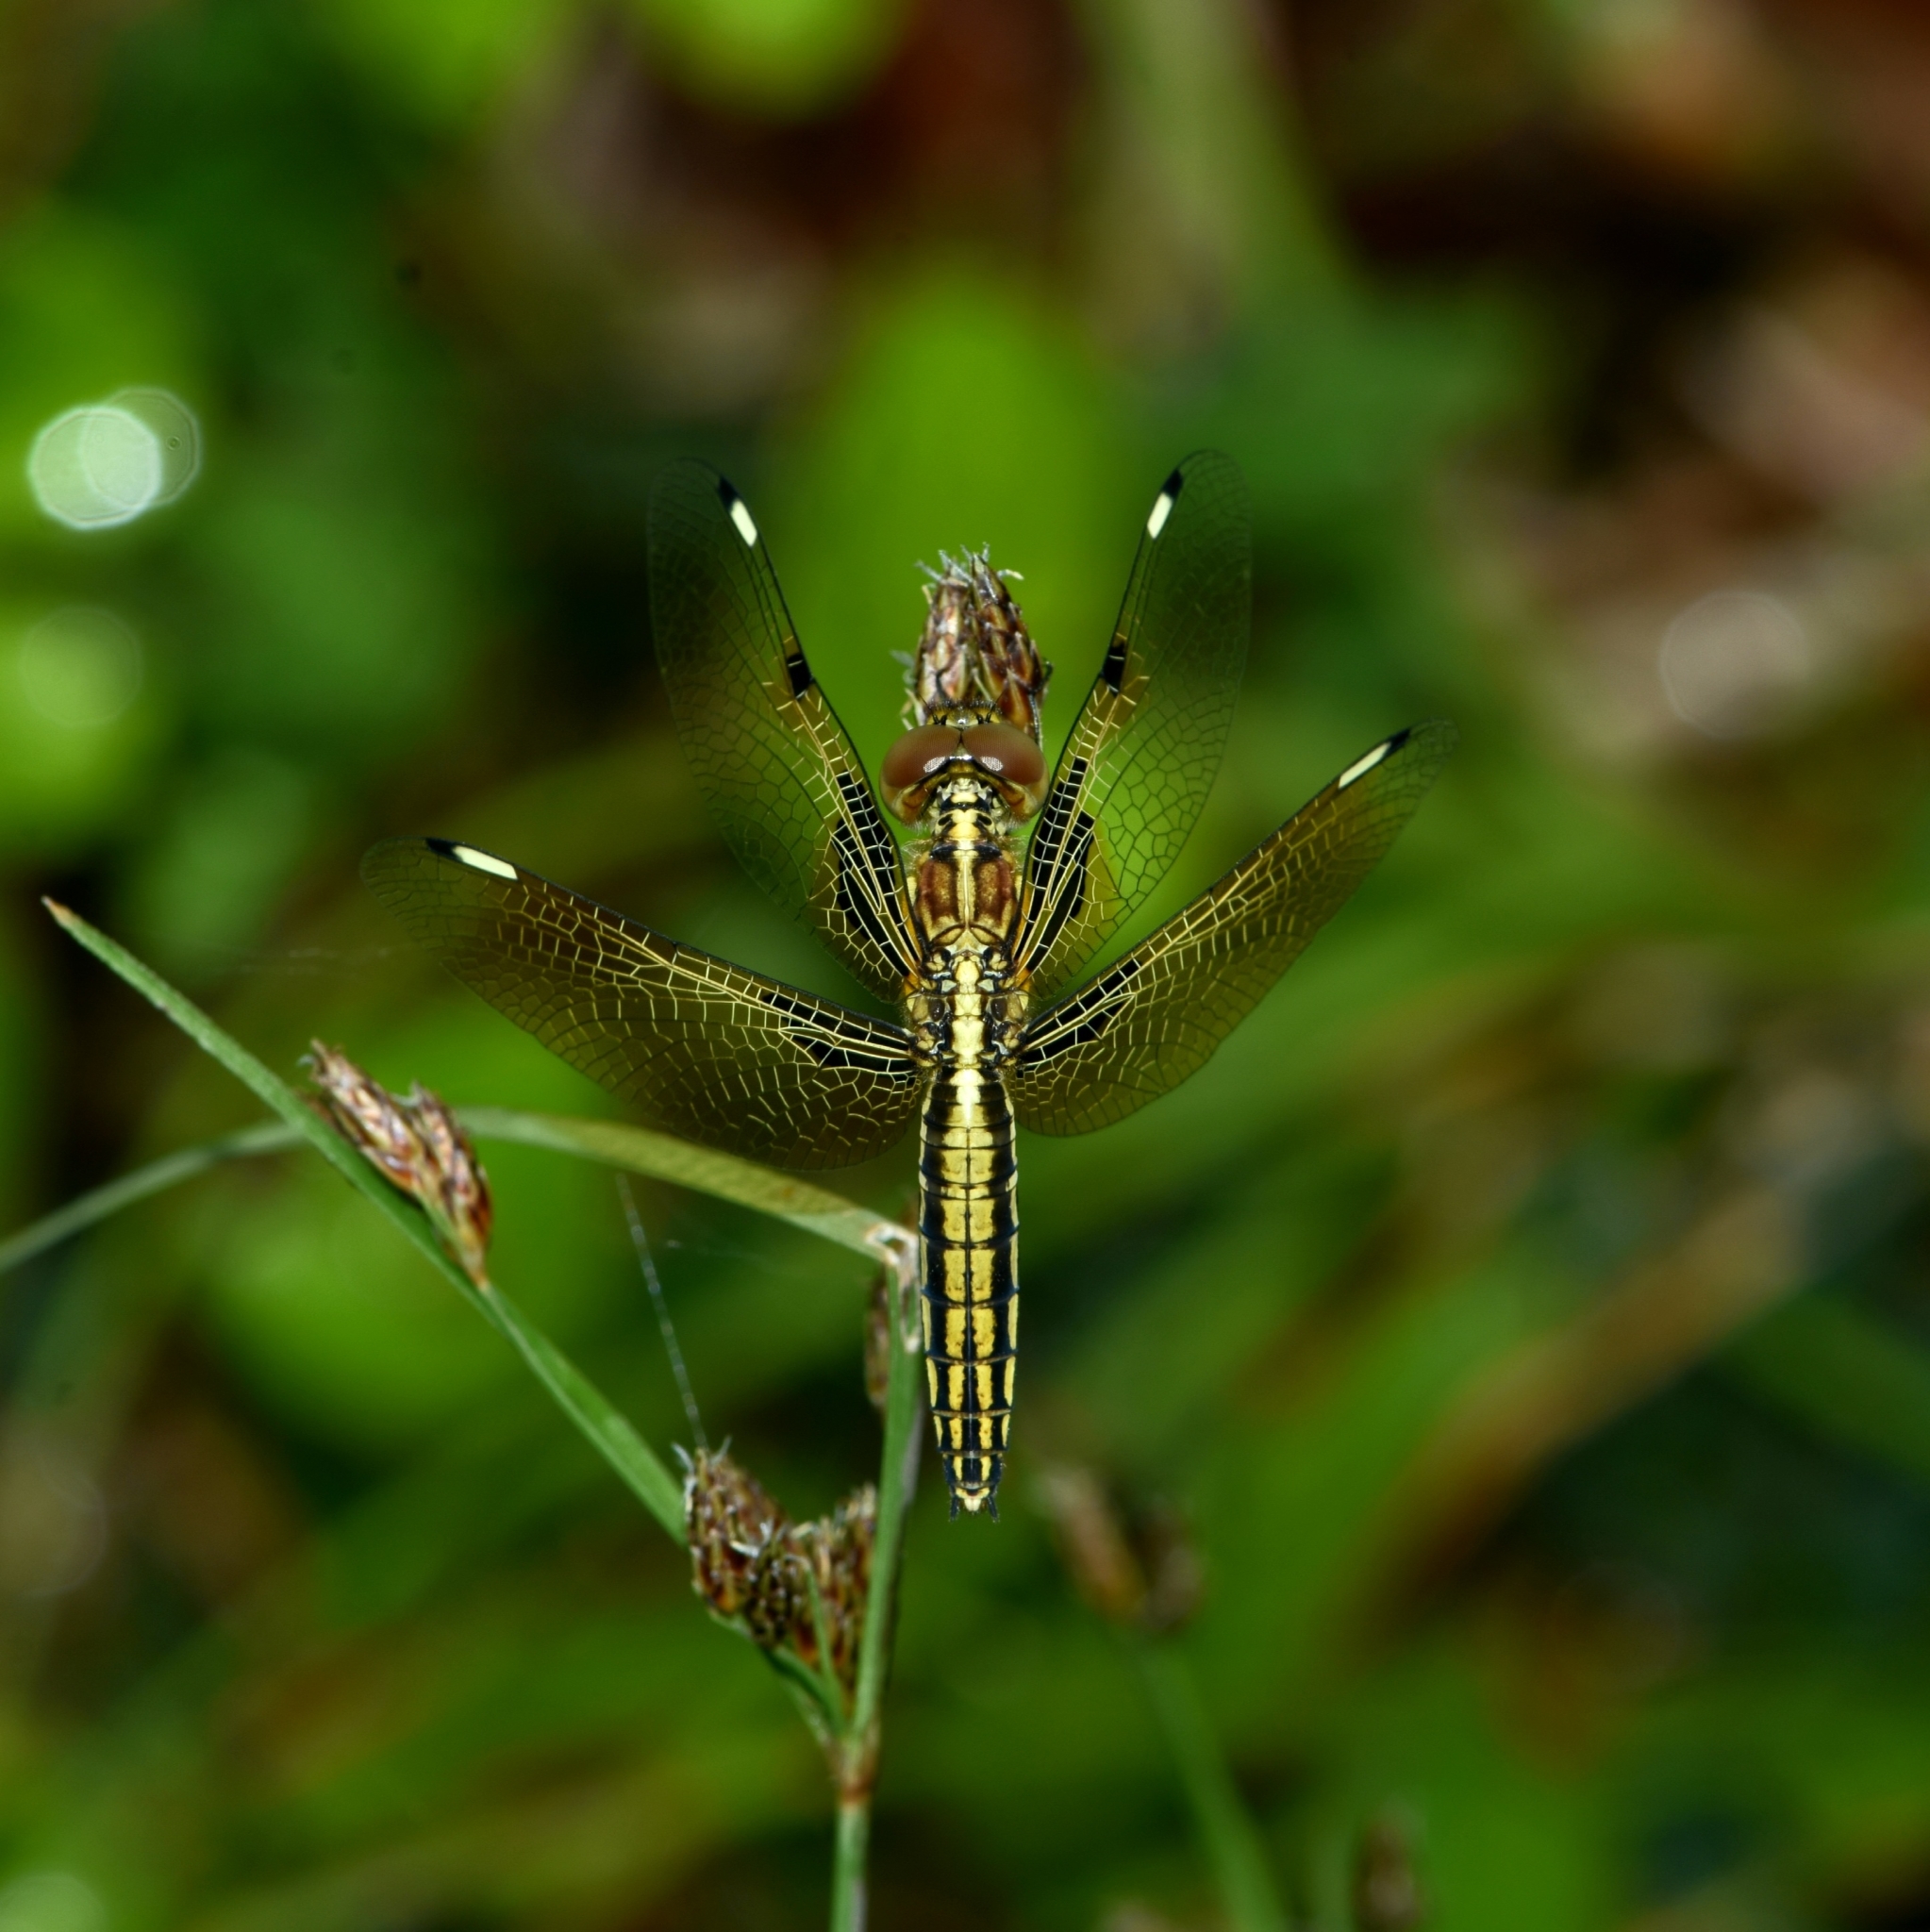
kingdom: Animalia
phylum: Arthropoda
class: Insecta
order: Odonata
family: Libellulidae
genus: Palpopleura
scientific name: Palpopleura sexmaculata
